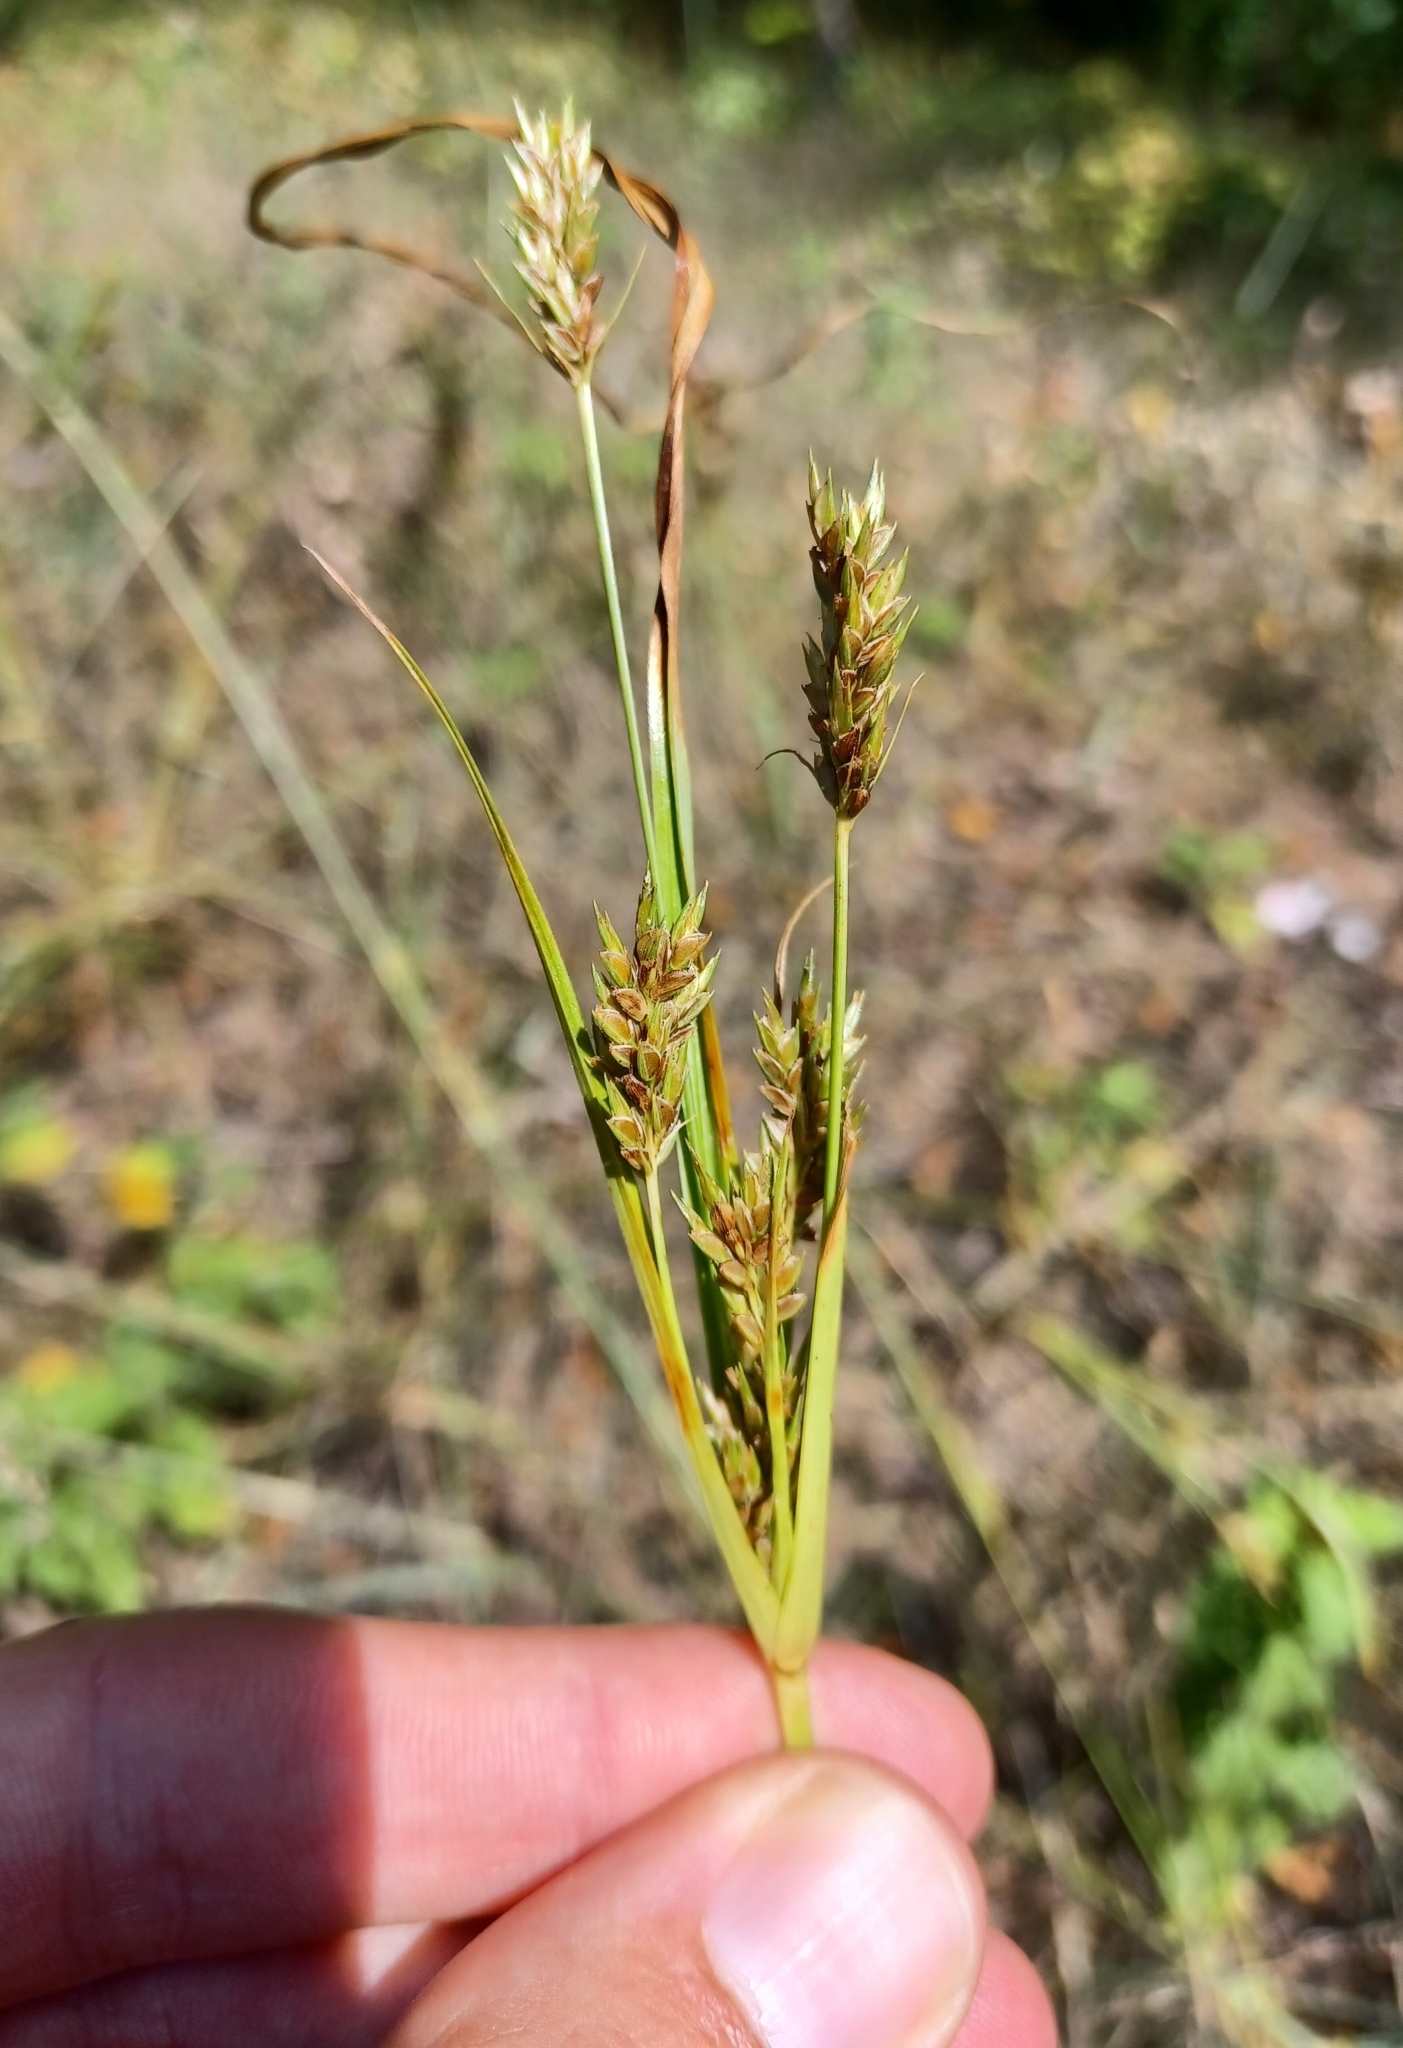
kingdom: Plantae
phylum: Tracheophyta
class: Liliopsida
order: Poales
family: Cyperaceae
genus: Cyperus
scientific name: Cyperus schweinitzii
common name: Schweinitz's cyperus
